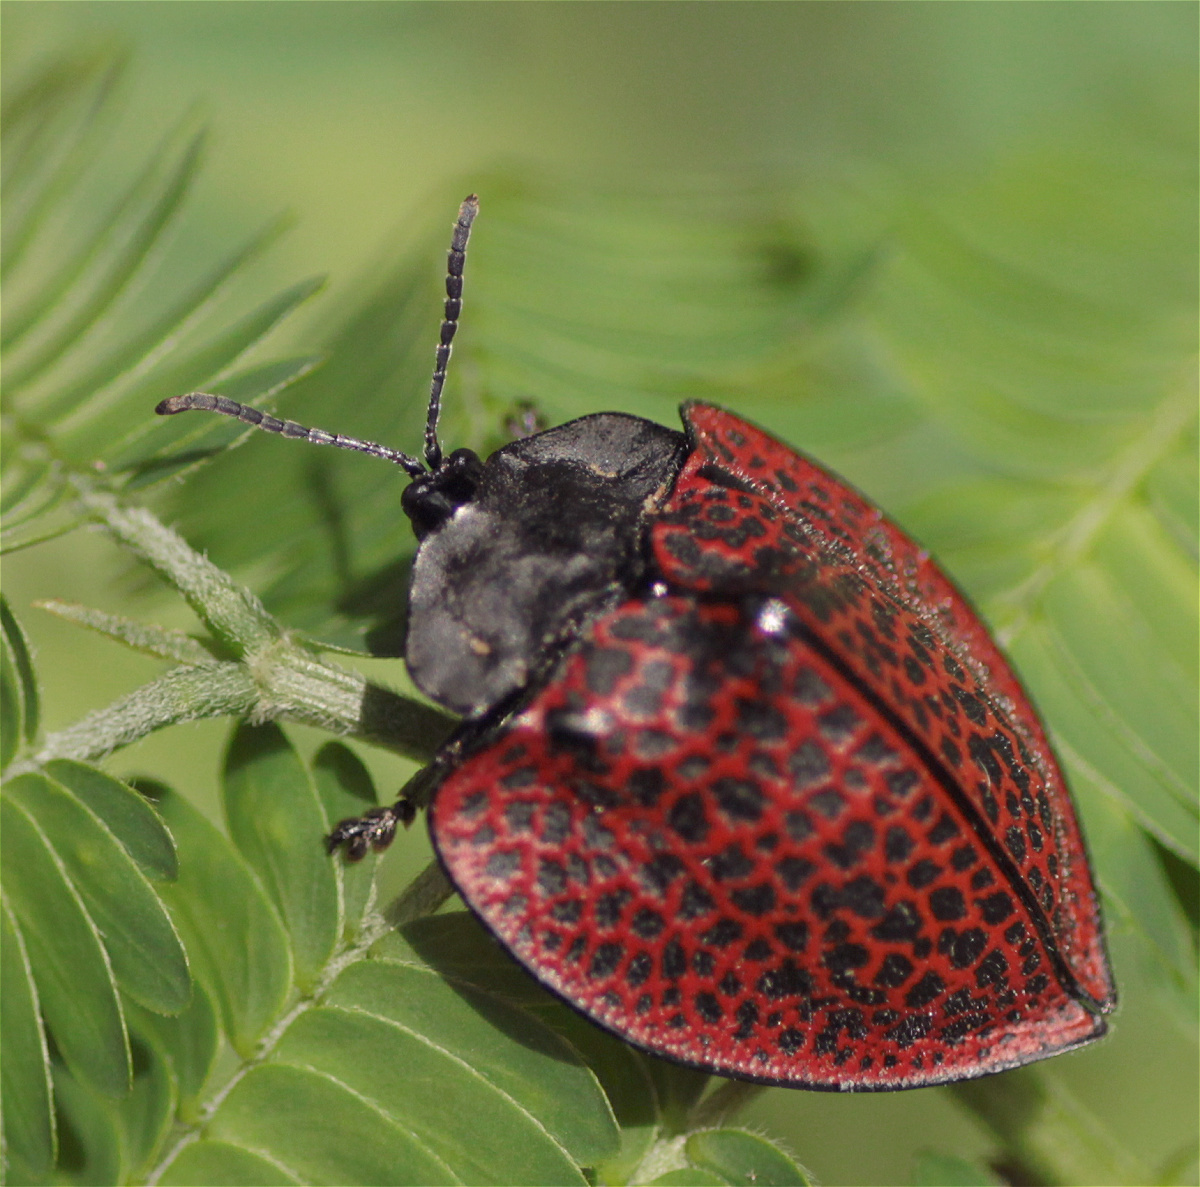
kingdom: Animalia
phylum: Arthropoda
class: Insecta
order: Coleoptera
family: Chrysomelidae
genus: Cyrtonota
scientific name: Cyrtonota textilis
